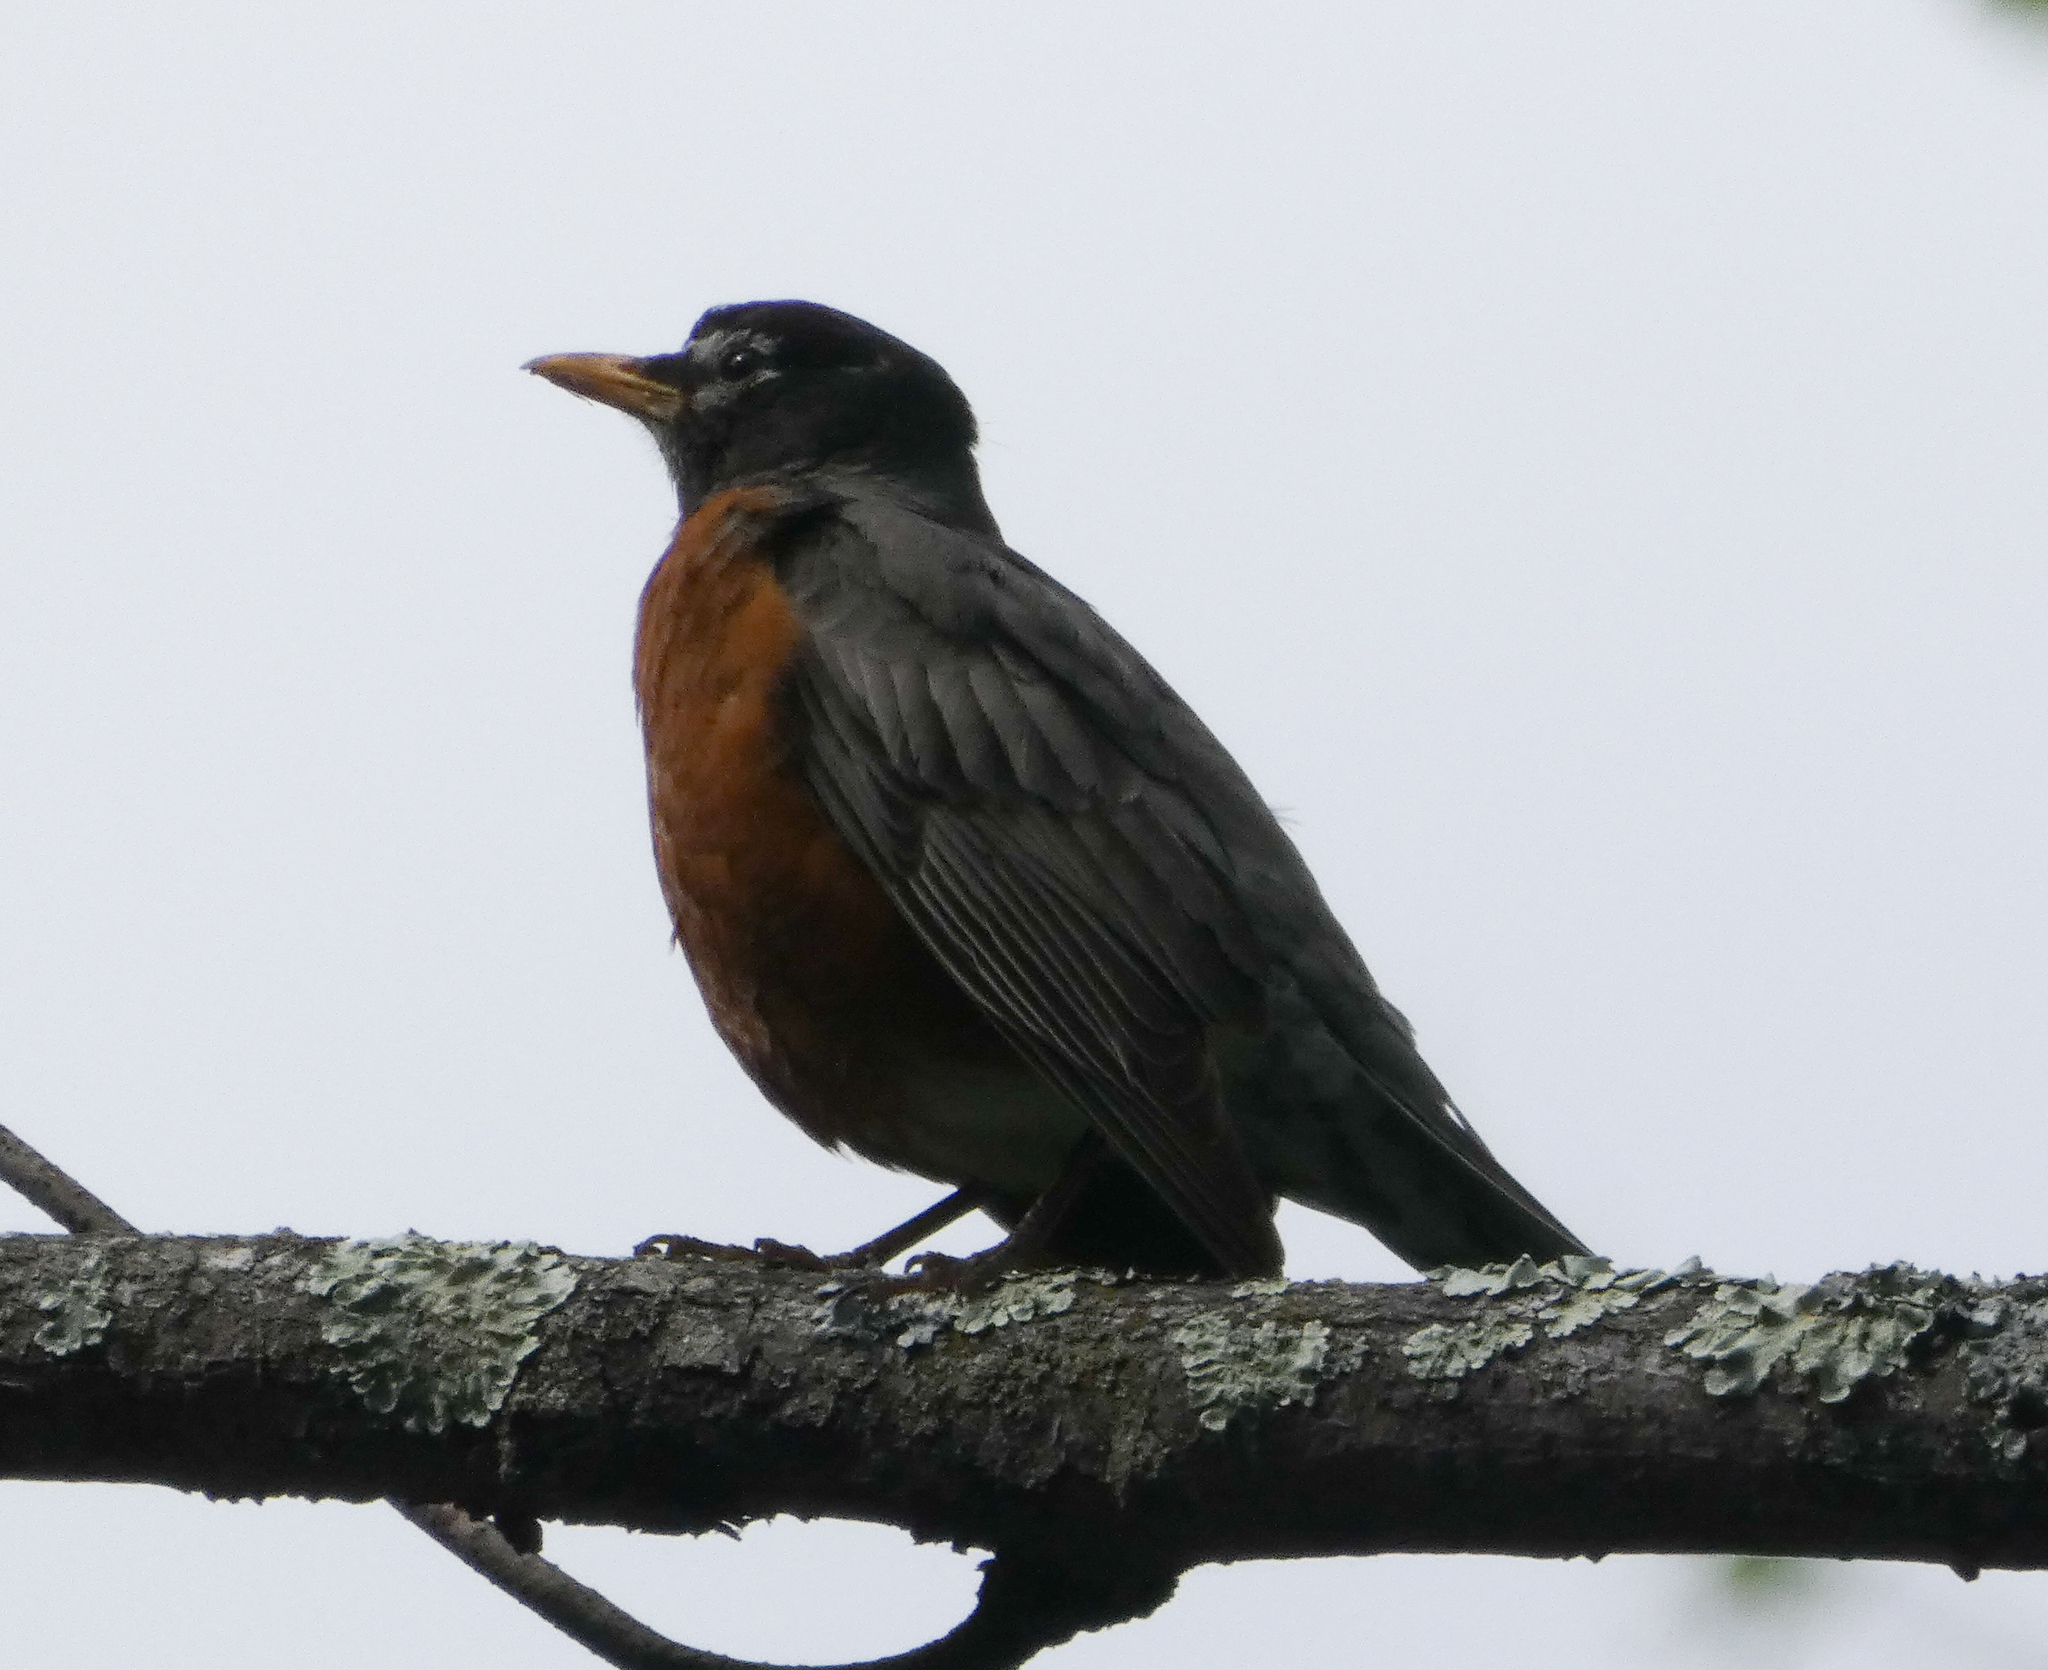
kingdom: Animalia
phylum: Chordata
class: Aves
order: Passeriformes
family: Turdidae
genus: Turdus
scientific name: Turdus migratorius
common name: American robin
